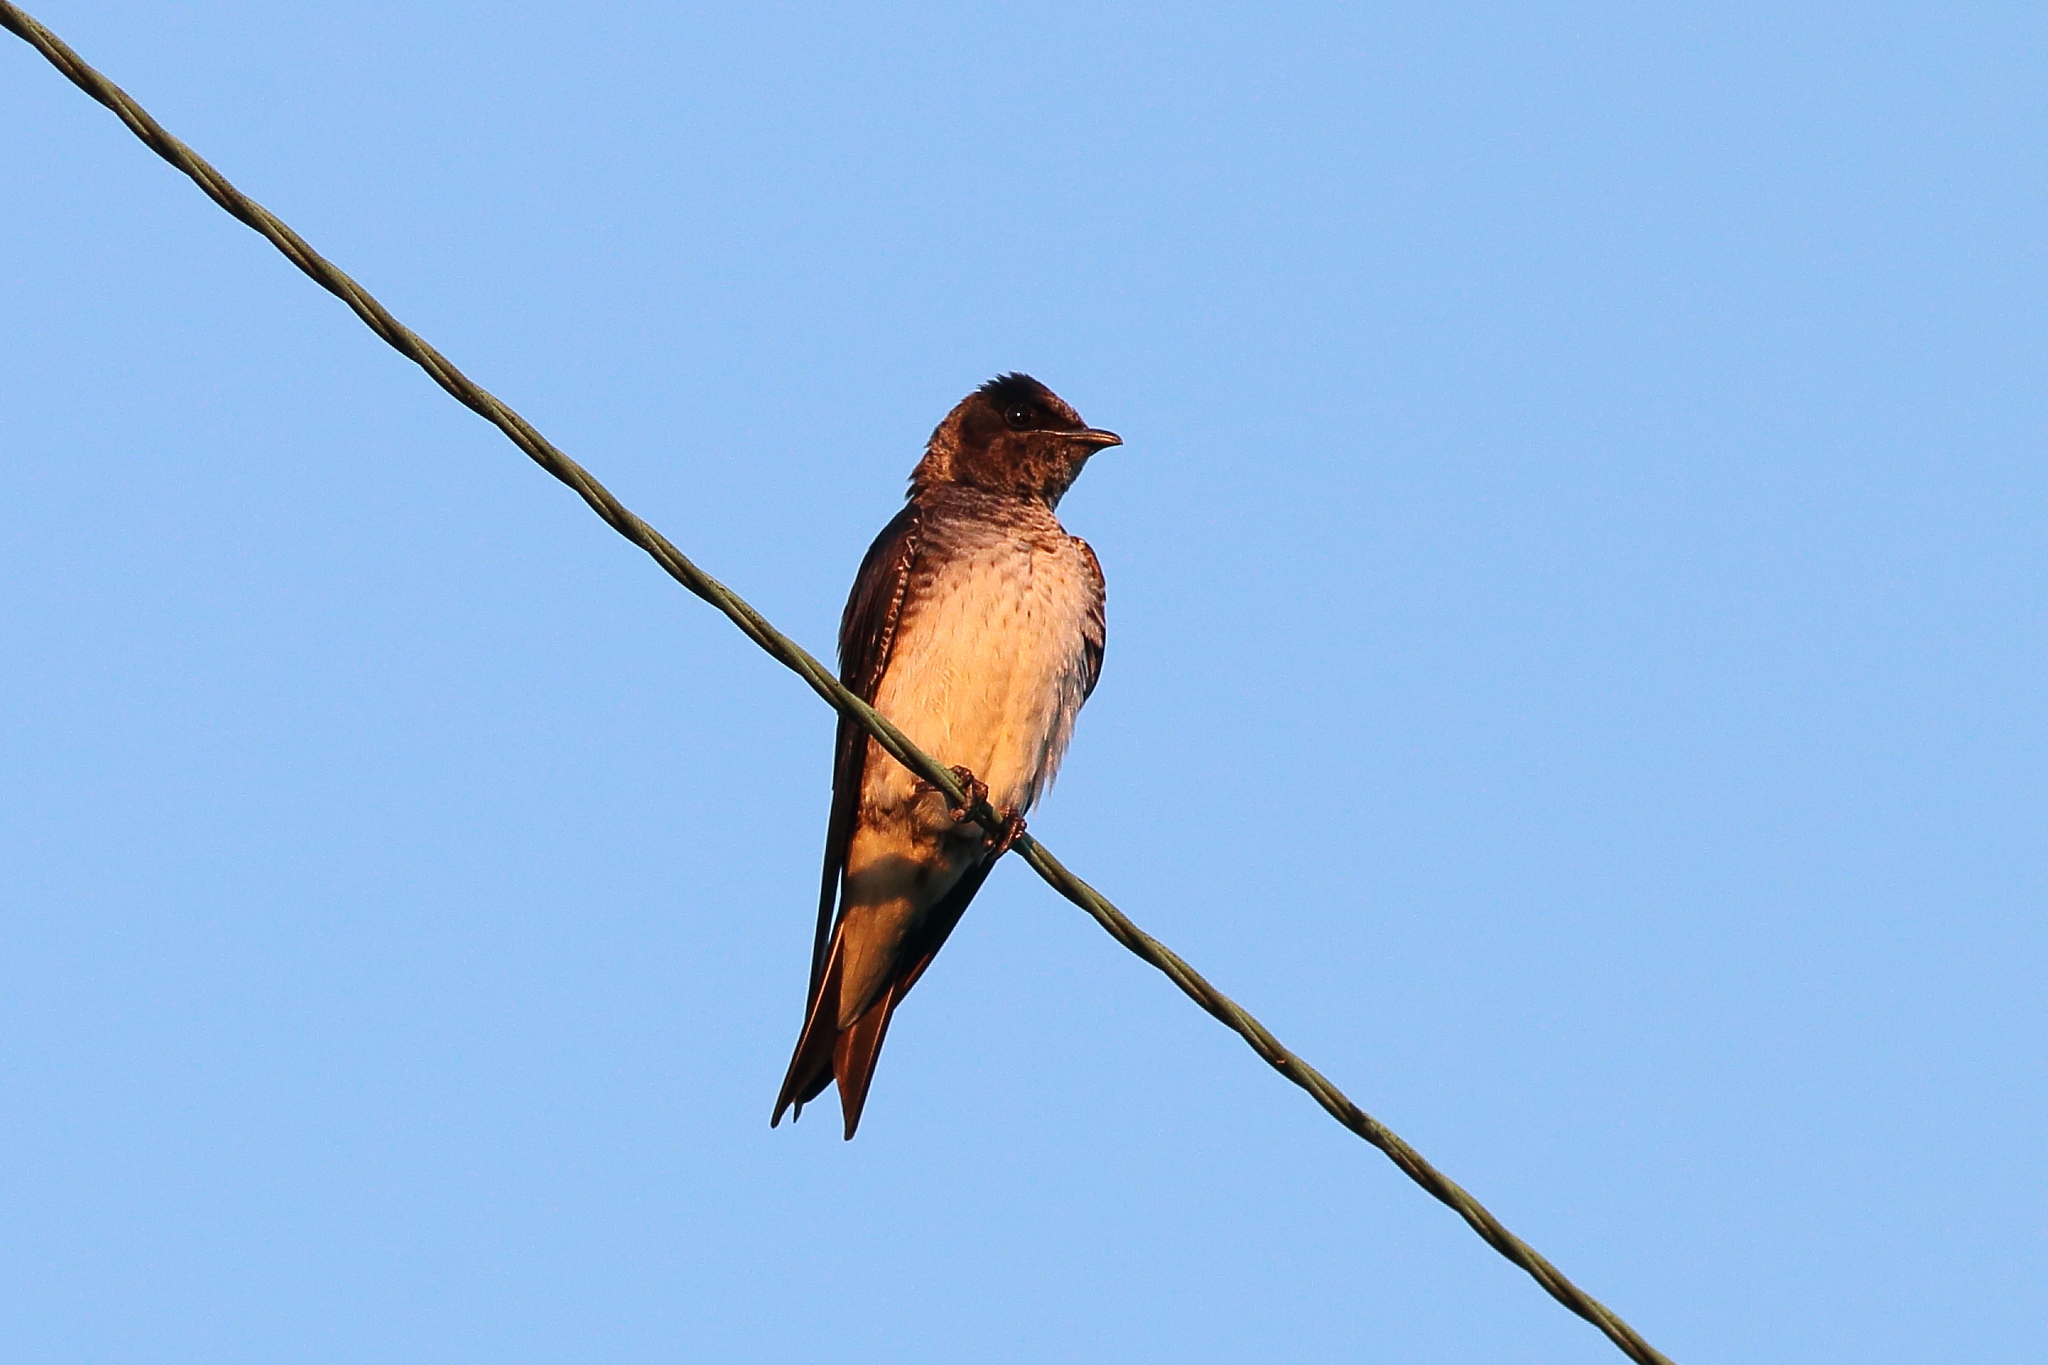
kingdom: Animalia
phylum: Chordata
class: Aves
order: Passeriformes
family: Hirundinidae
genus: Progne
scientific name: Progne subis
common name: Purple martin
